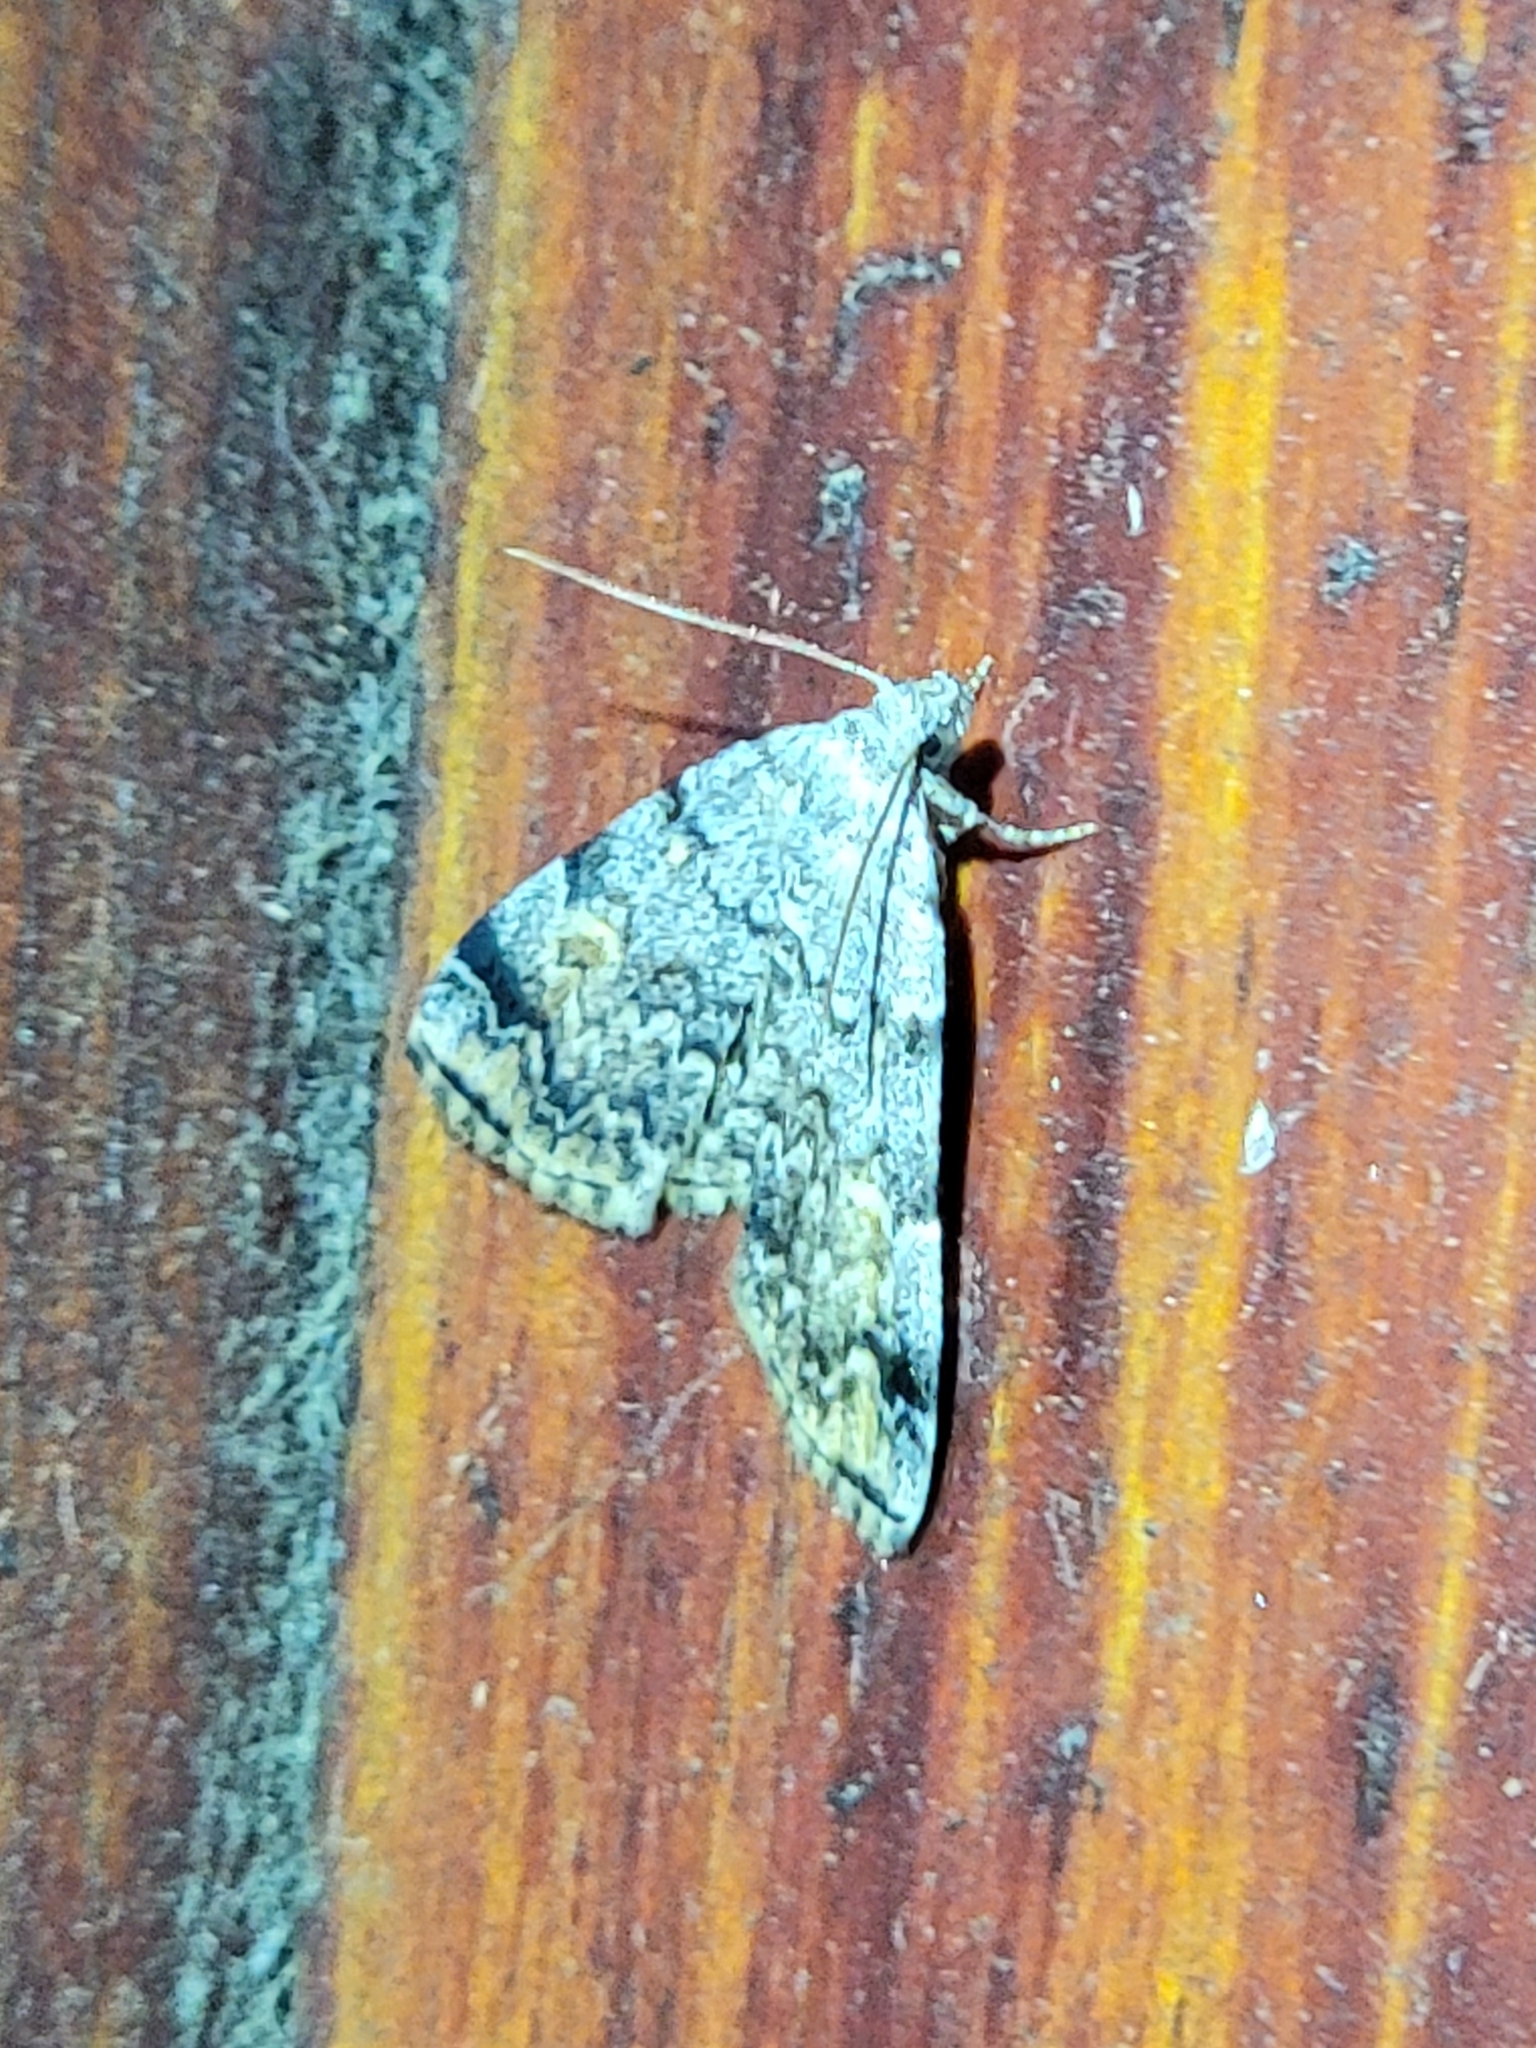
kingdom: Animalia
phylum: Arthropoda
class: Insecta
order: Lepidoptera
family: Erebidae
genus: Idia
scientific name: Idia americalis
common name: American idia moth
